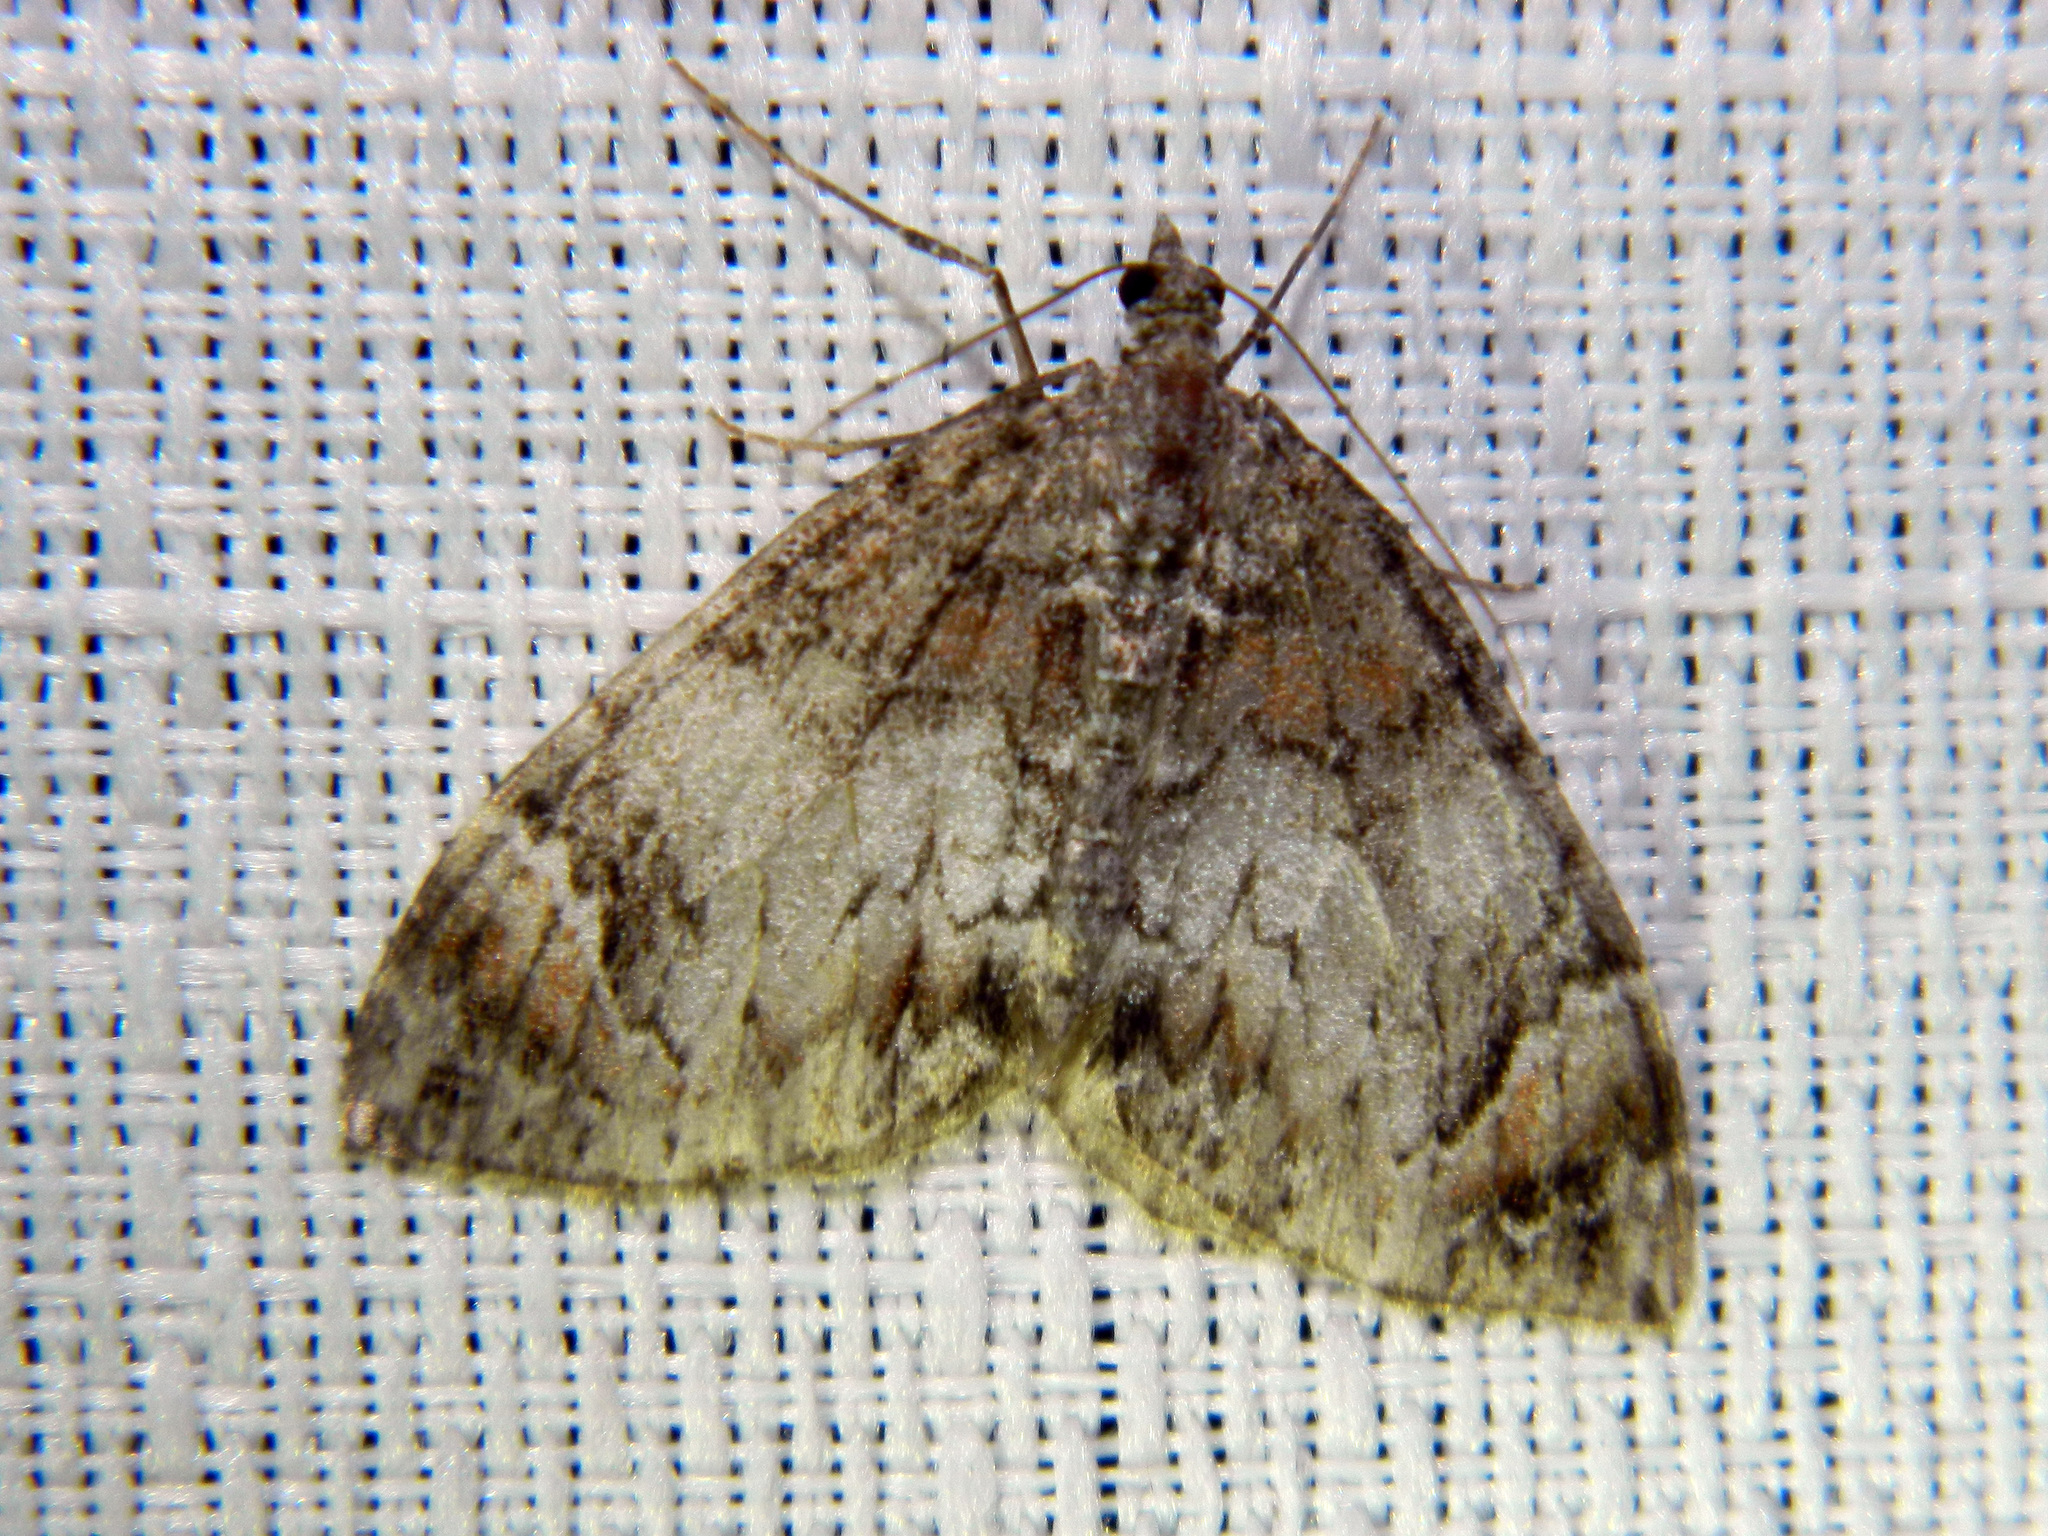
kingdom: Animalia
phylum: Arthropoda
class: Insecta
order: Lepidoptera
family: Geometridae
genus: Dysstroma
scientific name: Dysstroma citrata
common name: Dark marbled carpet
